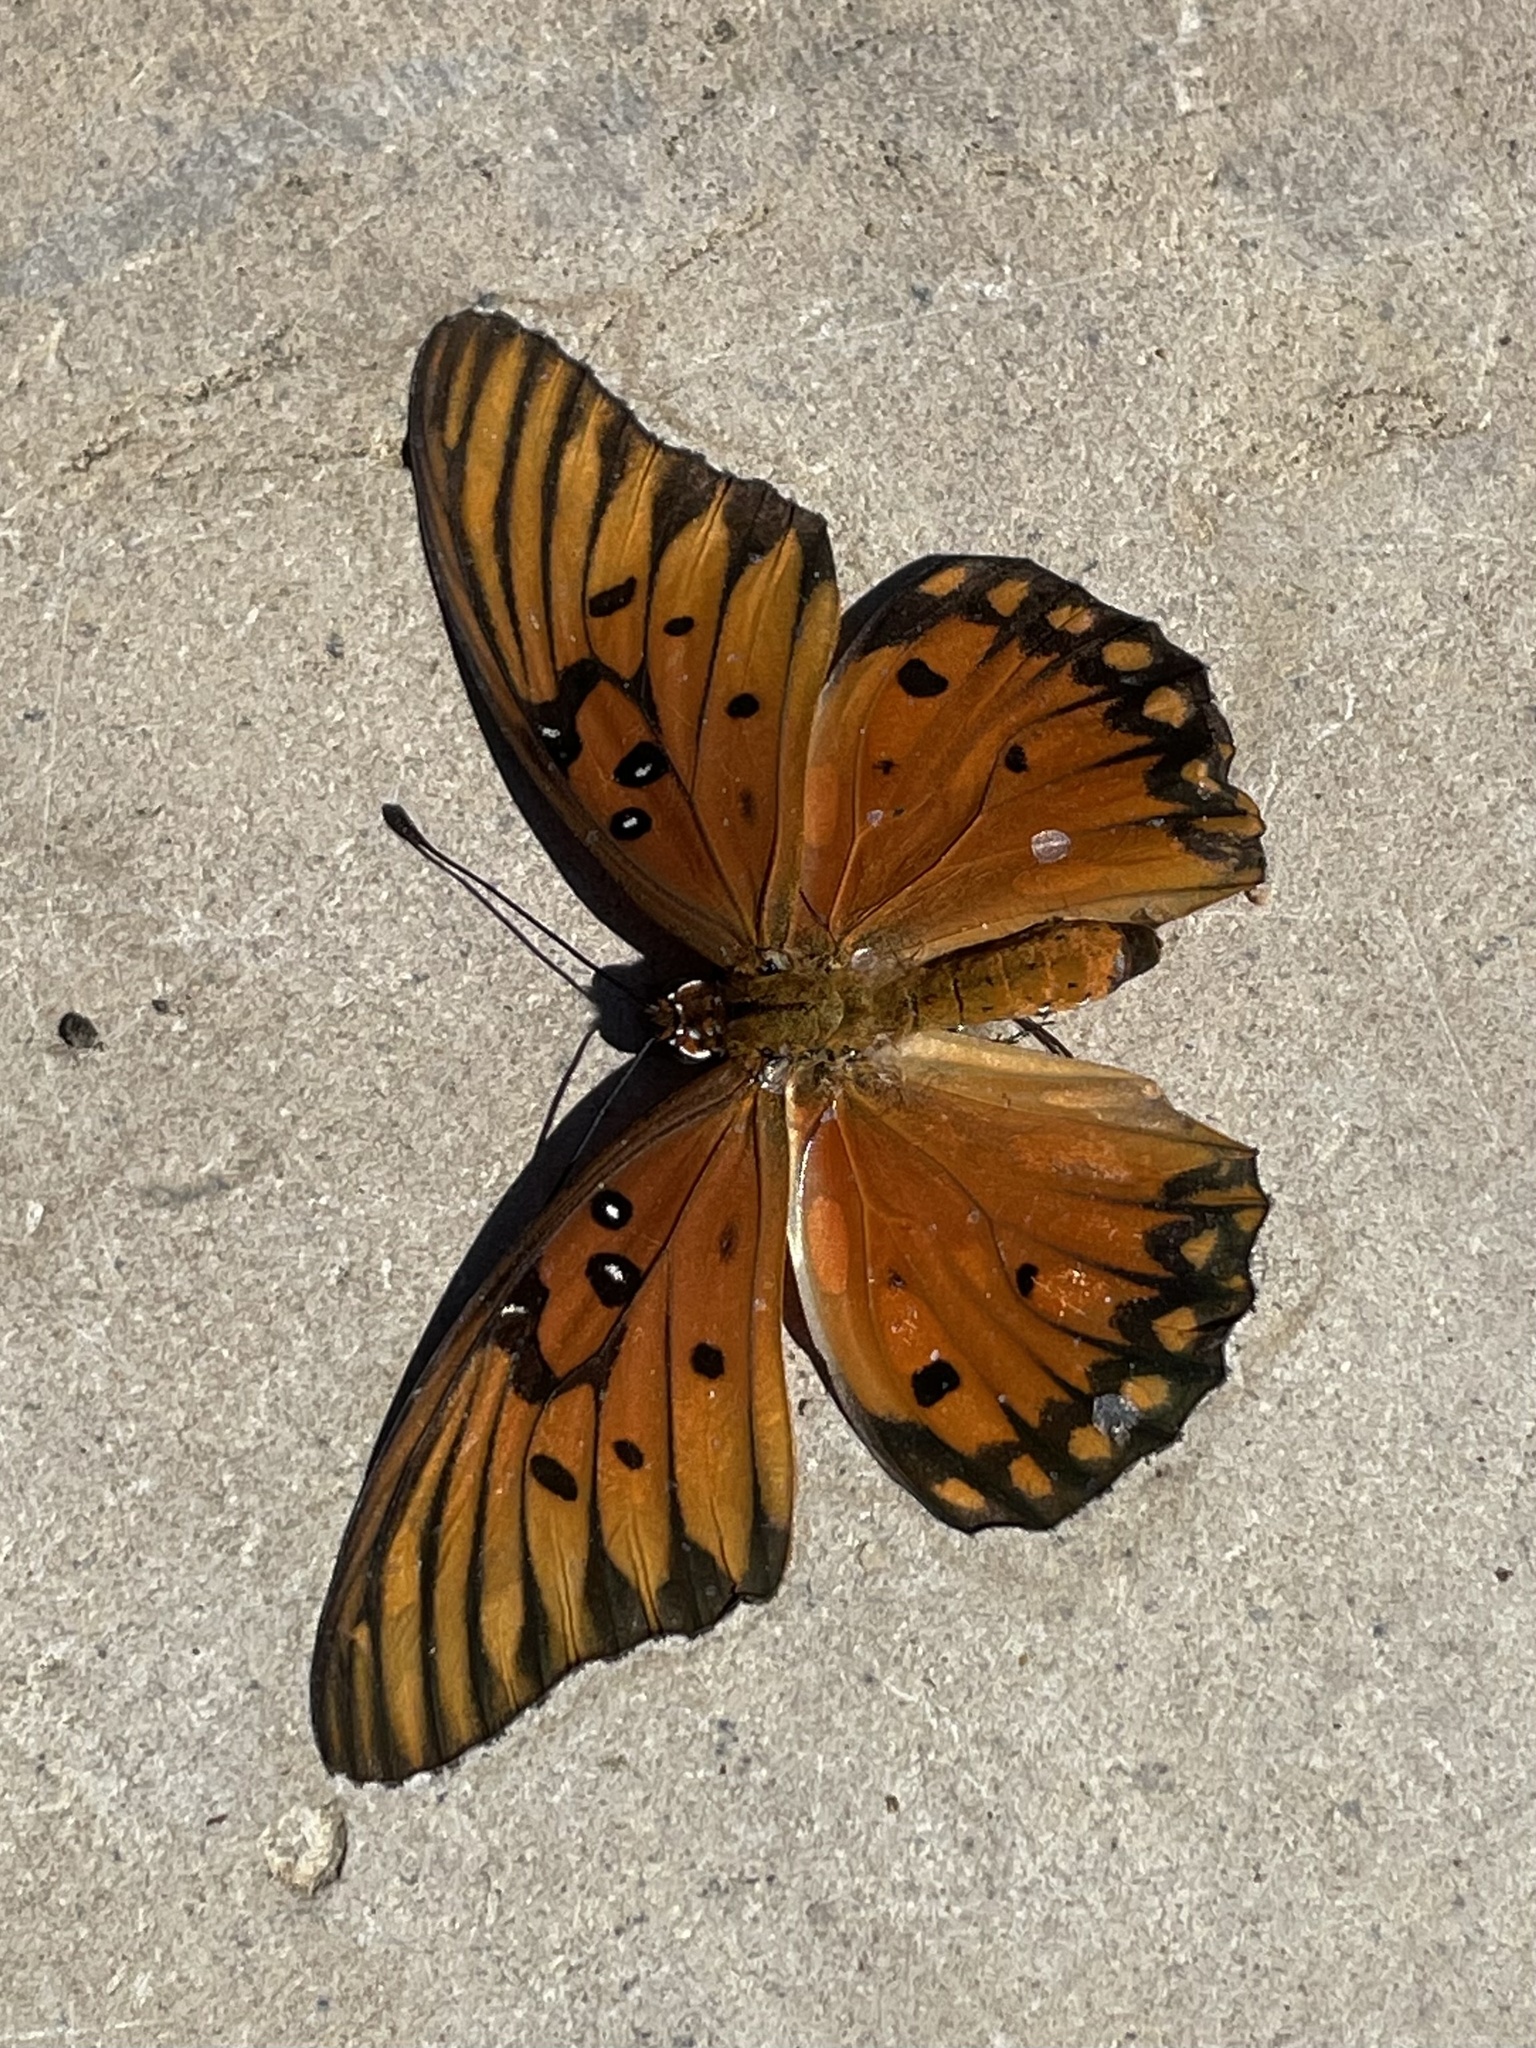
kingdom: Animalia
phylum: Arthropoda
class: Insecta
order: Lepidoptera
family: Nymphalidae
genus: Dione
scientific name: Dione vanillae
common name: Gulf fritillary
